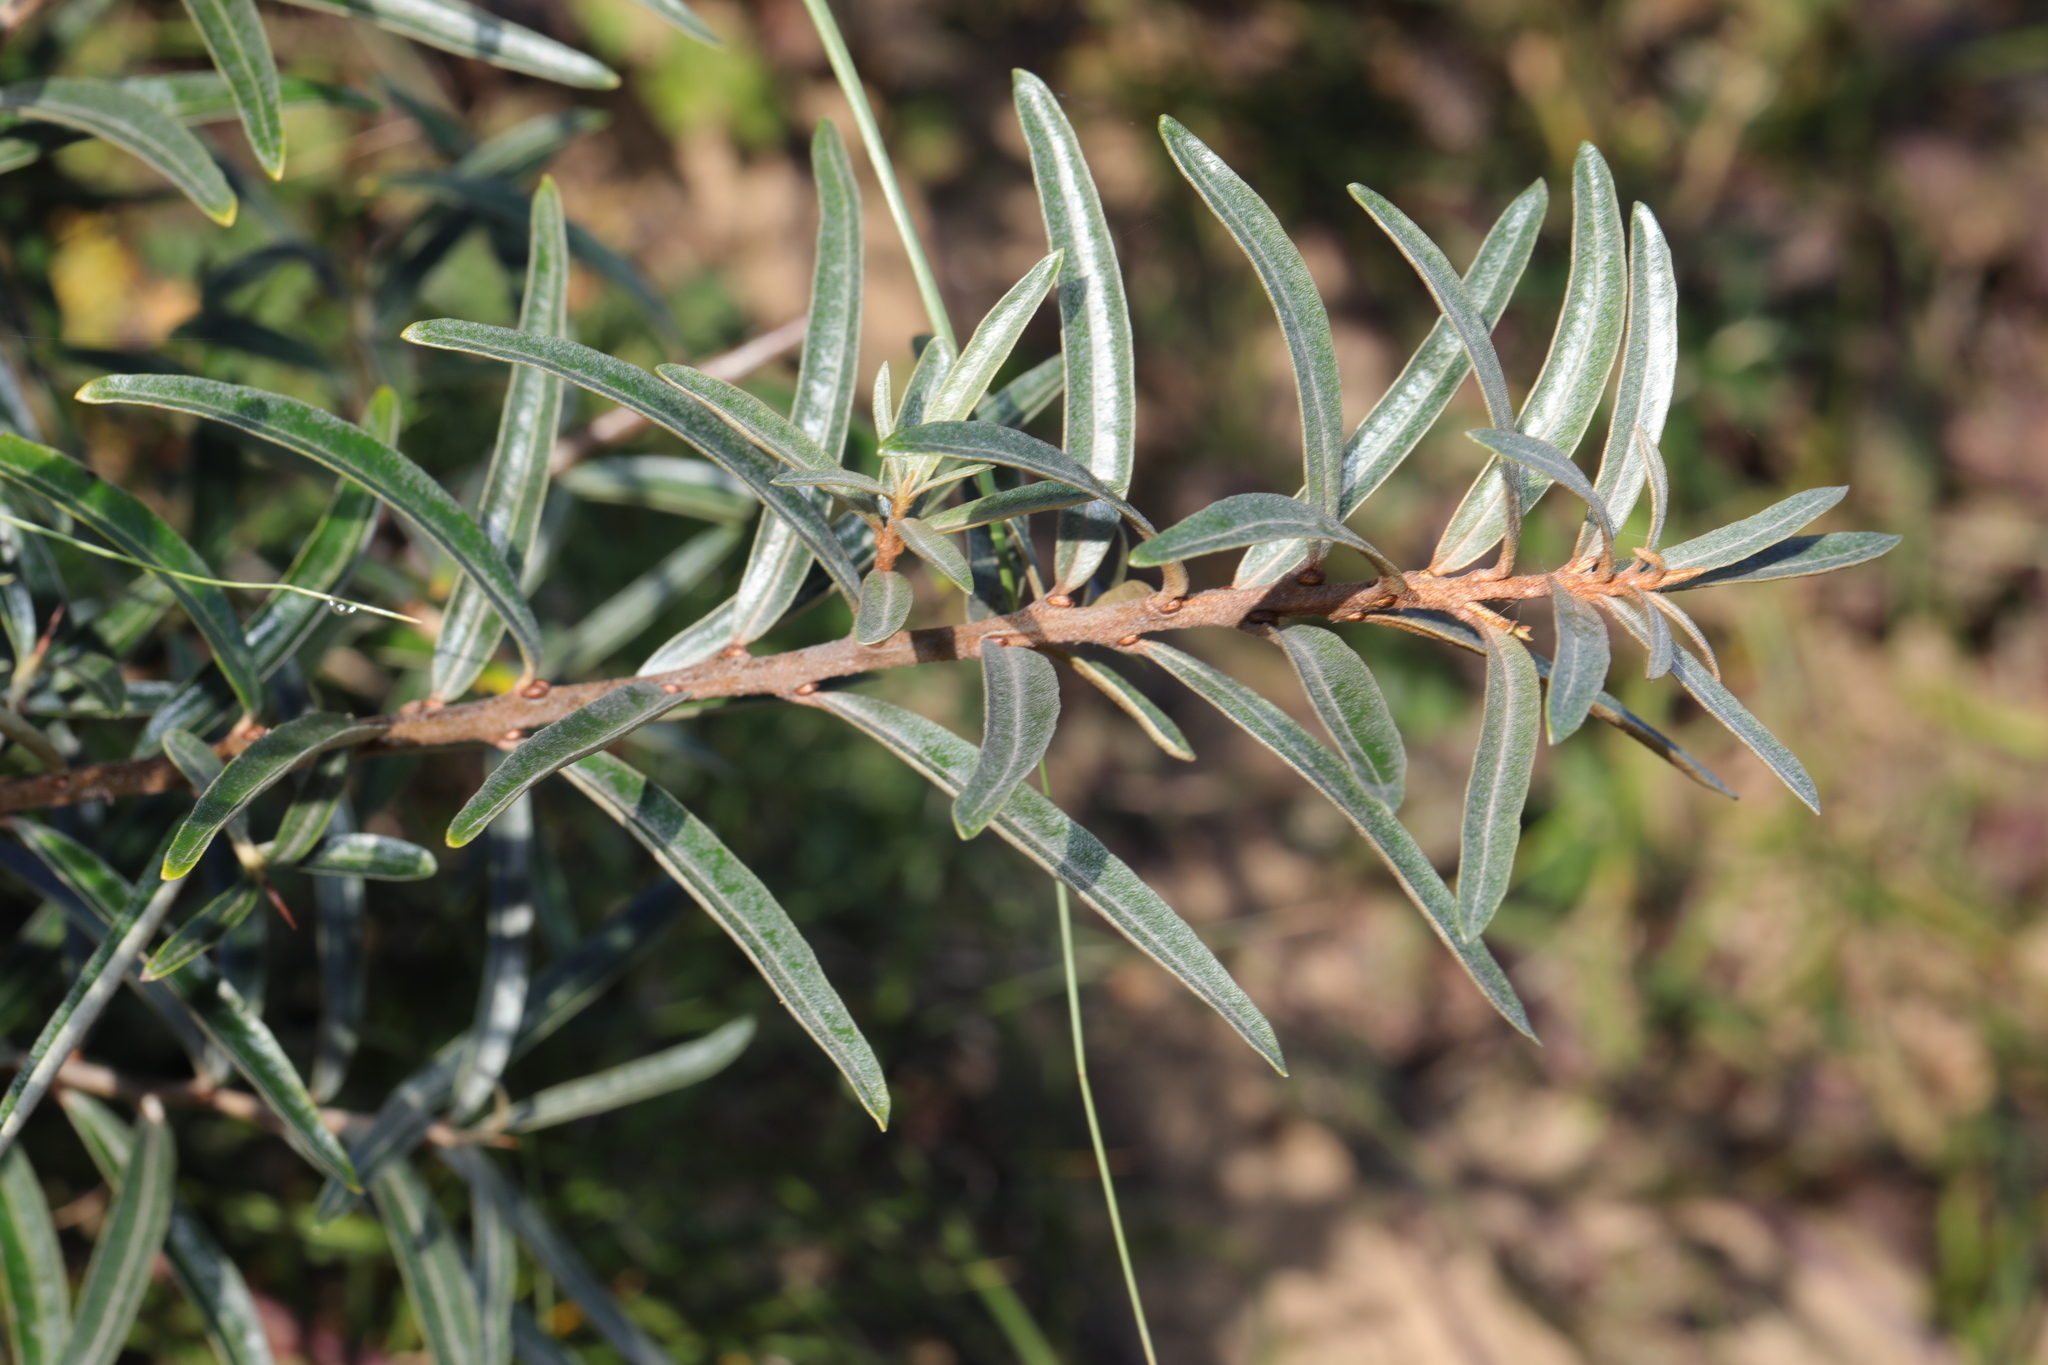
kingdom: Plantae
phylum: Tracheophyta
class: Magnoliopsida
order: Rosales
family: Elaeagnaceae
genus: Hippophae
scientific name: Hippophae rhamnoides
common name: Sea-buckthorn
